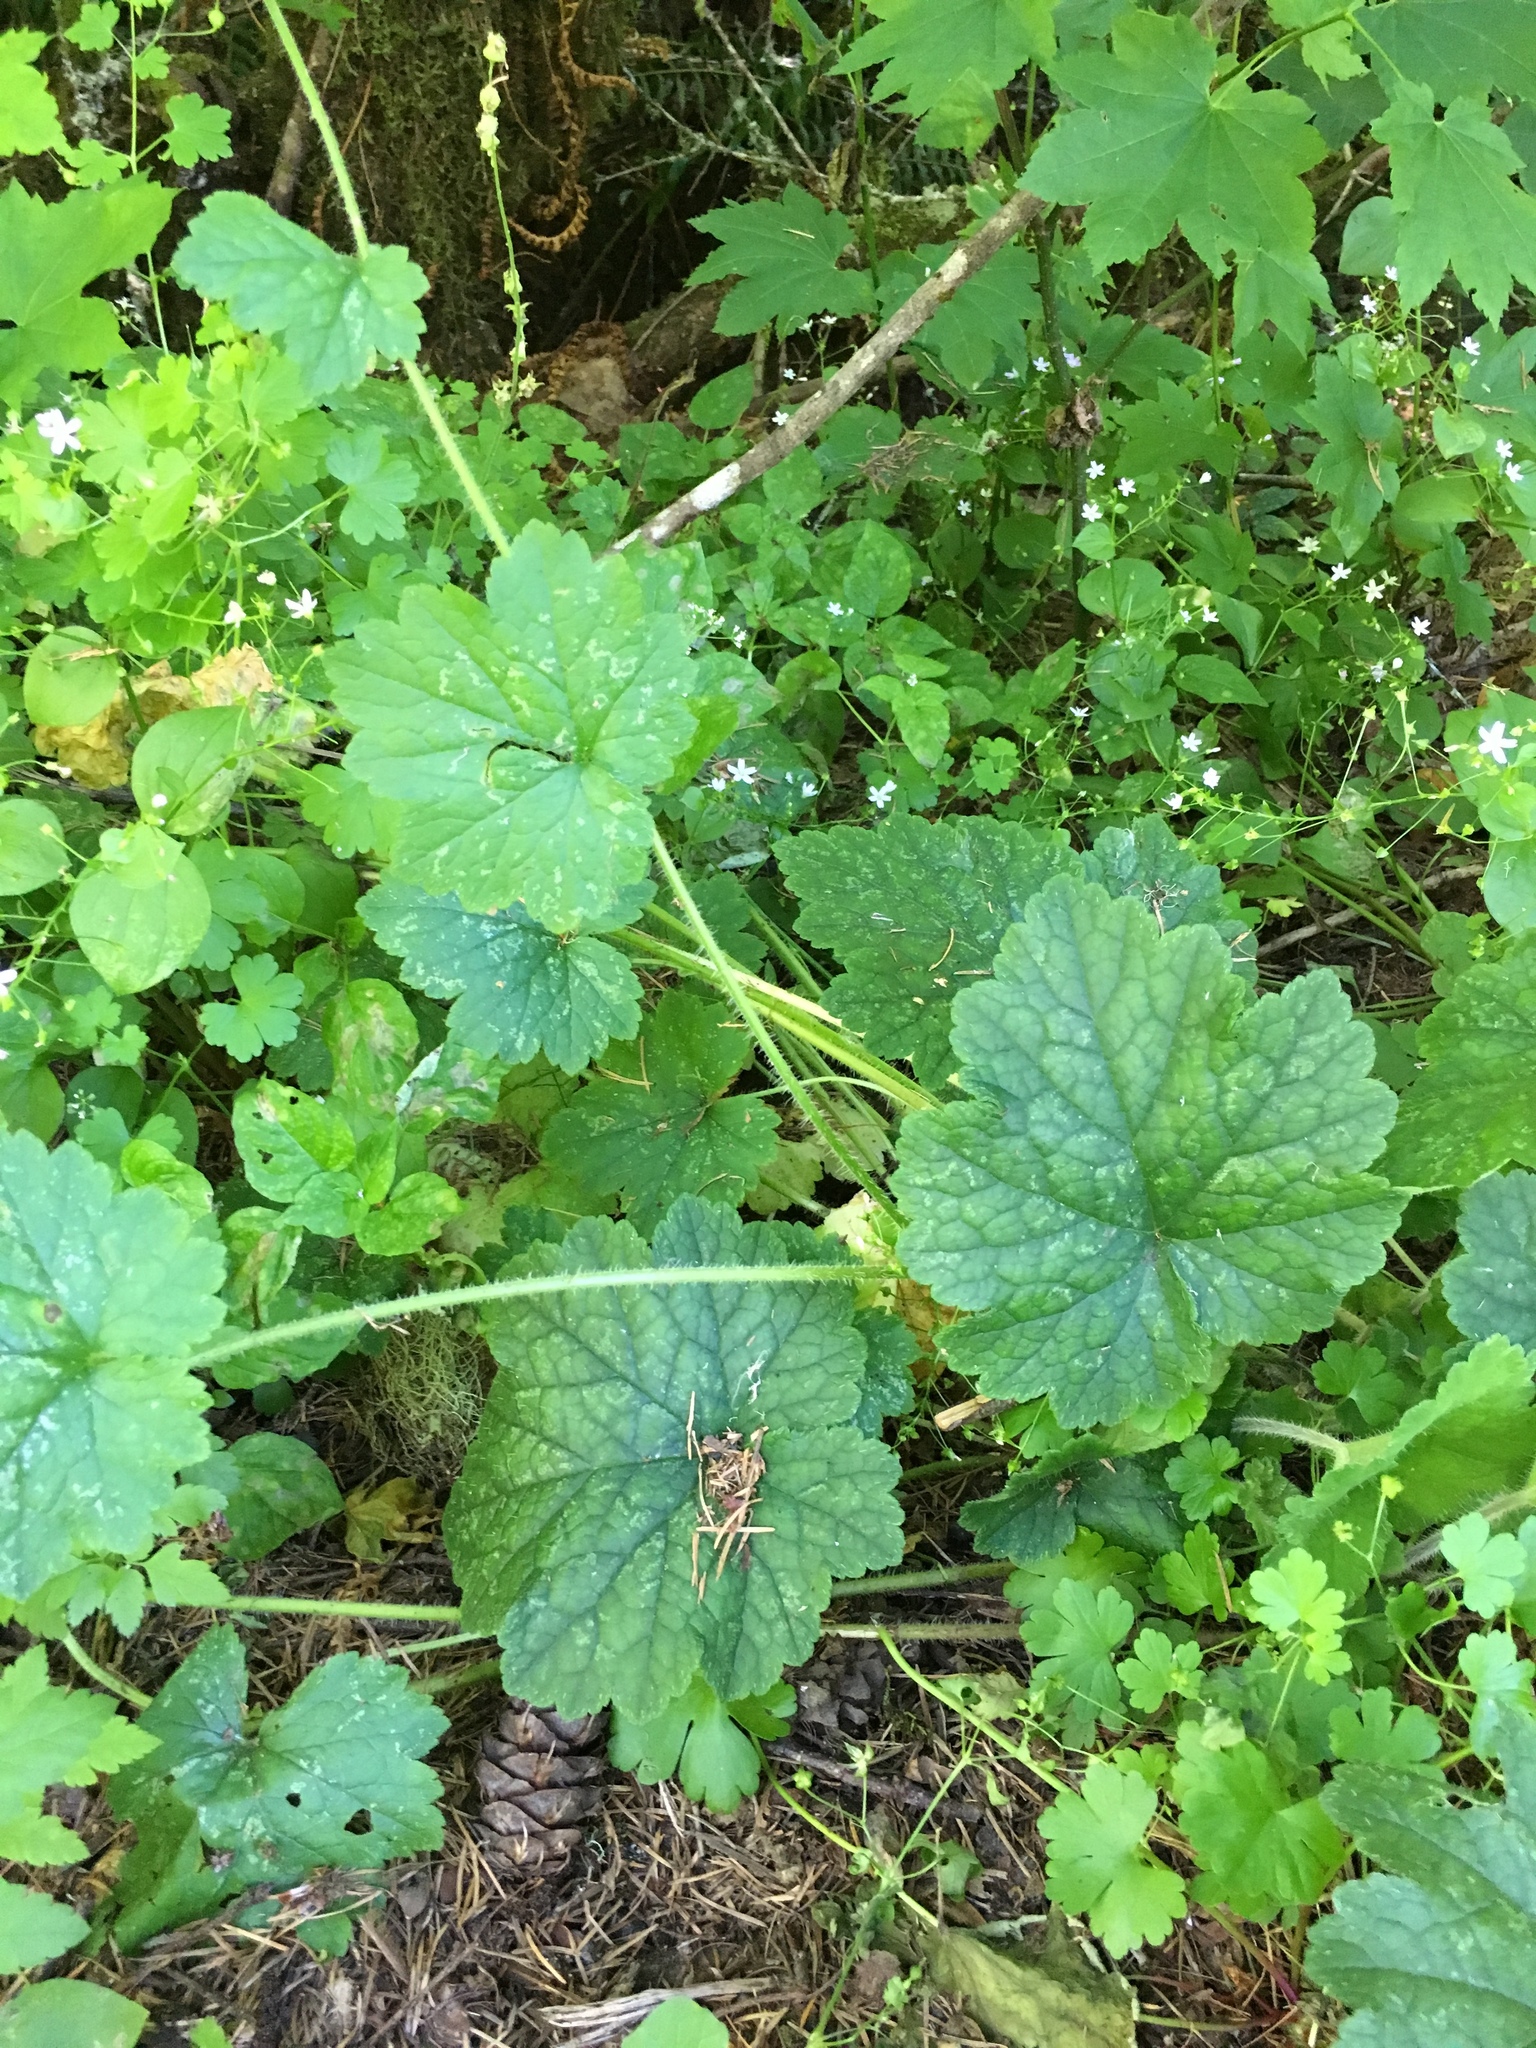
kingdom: Plantae
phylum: Tracheophyta
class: Magnoliopsida
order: Saxifragales
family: Saxifragaceae
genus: Tellima
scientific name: Tellima grandiflora
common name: Fringecups
